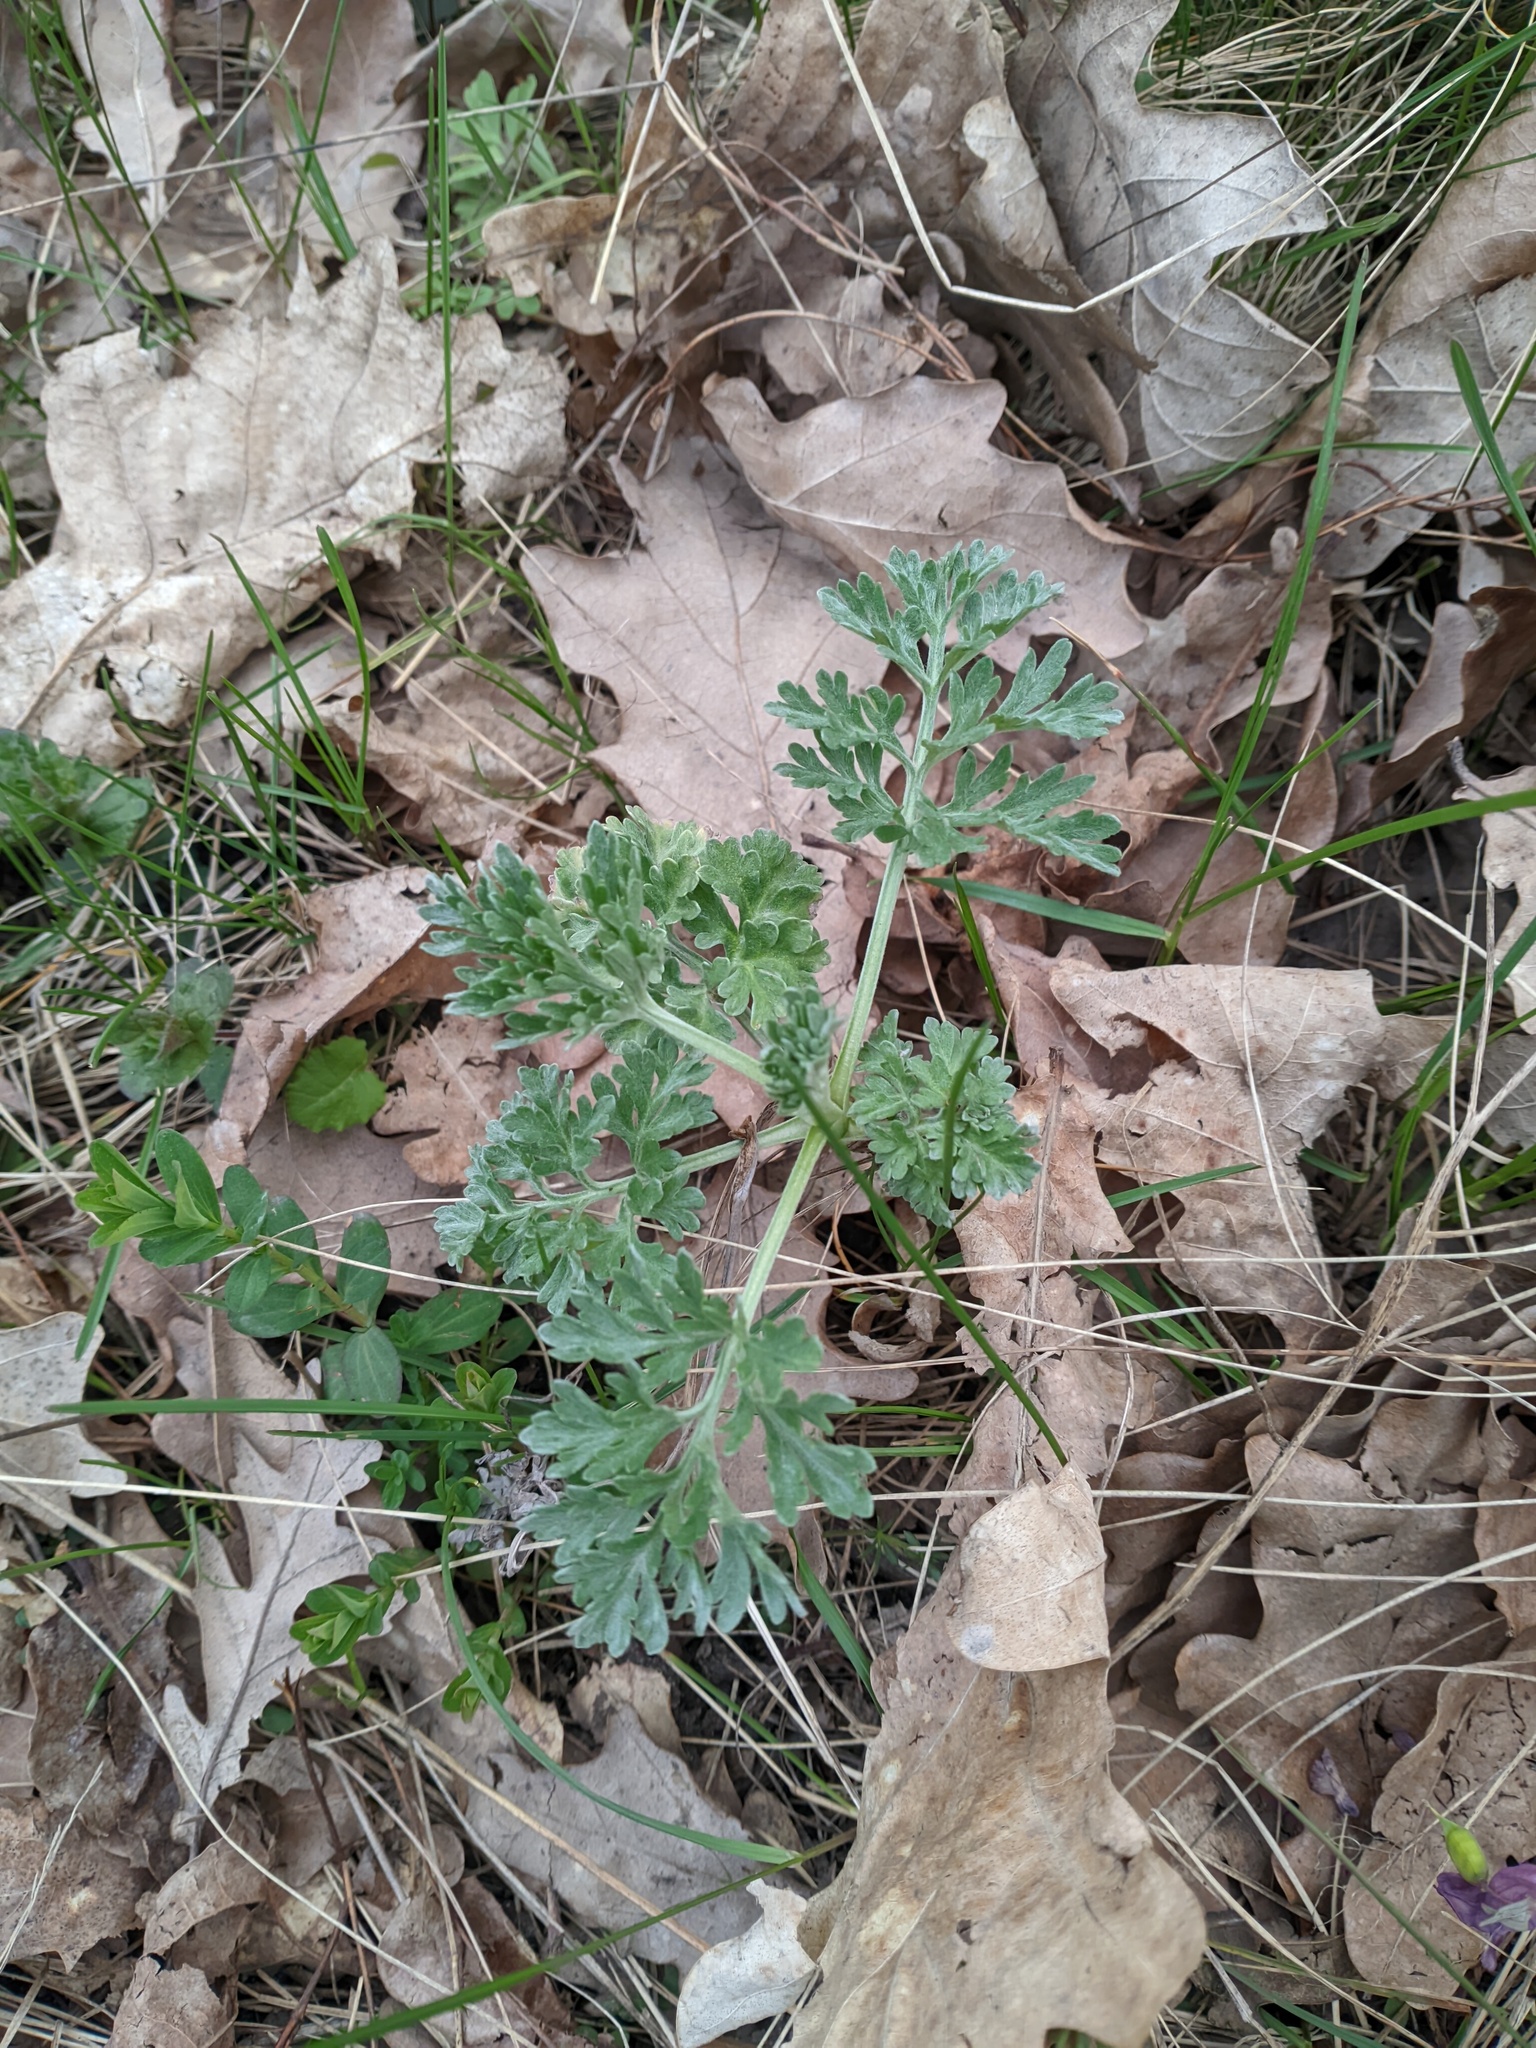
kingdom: Plantae
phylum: Tracheophyta
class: Magnoliopsida
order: Asterales
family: Asteraceae
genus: Artemisia
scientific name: Artemisia absinthium
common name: Wormwood
